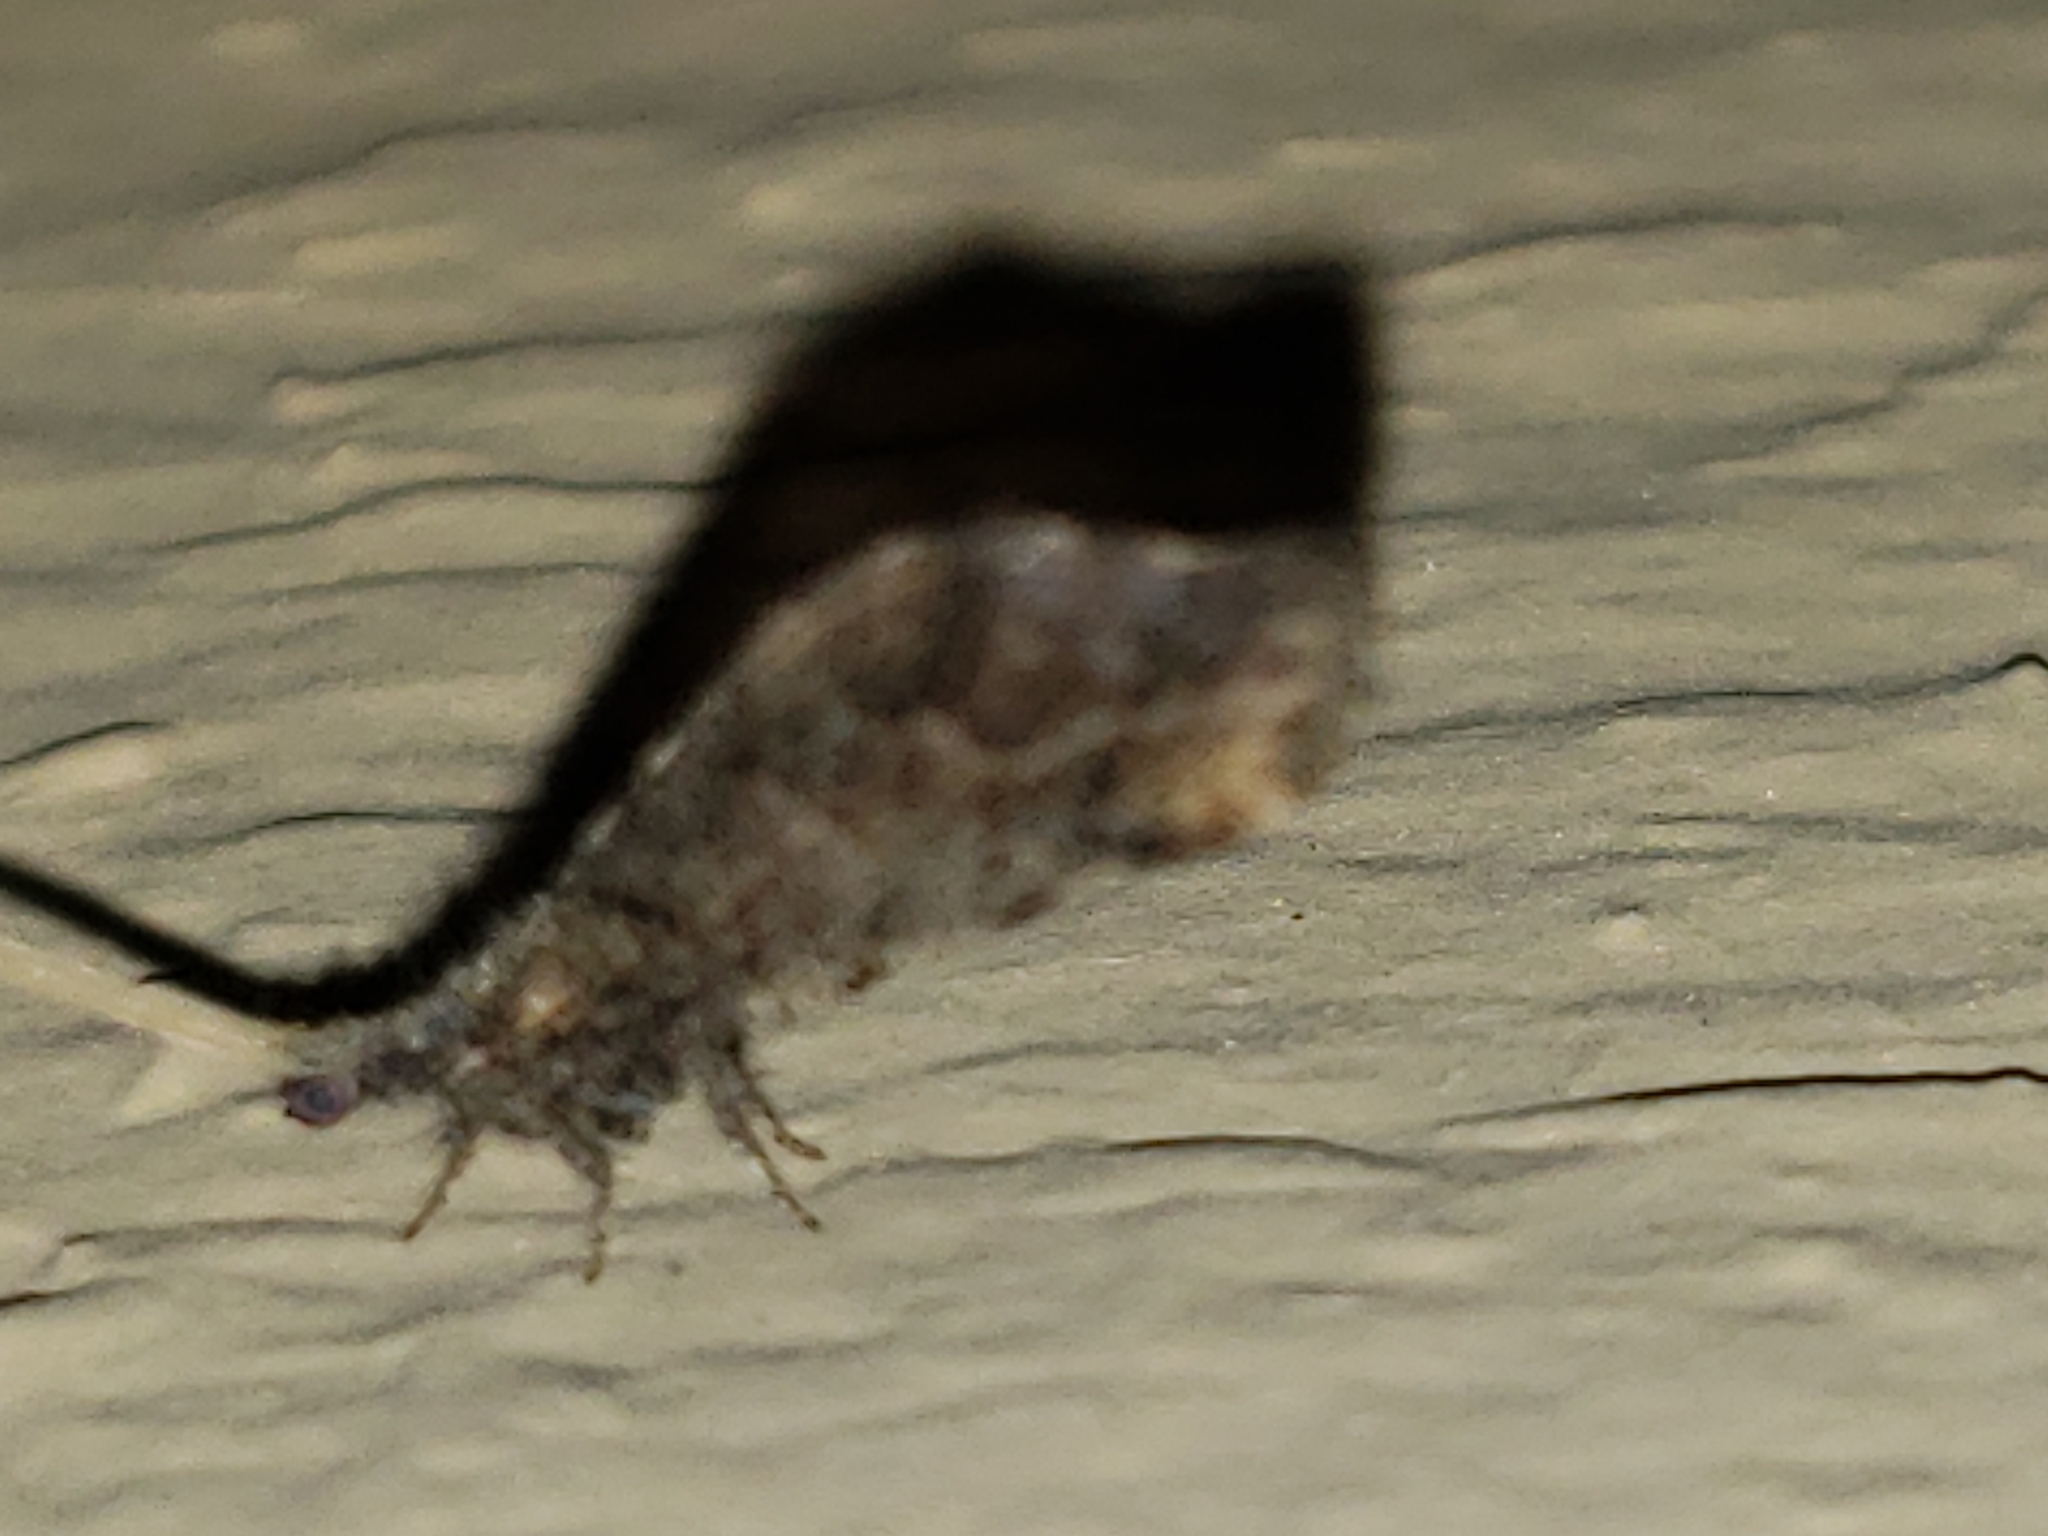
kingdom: Animalia
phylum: Arthropoda
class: Insecta
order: Neuroptera
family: Berothidae
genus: Lomamyia
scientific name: Lomamyia flavicornis
